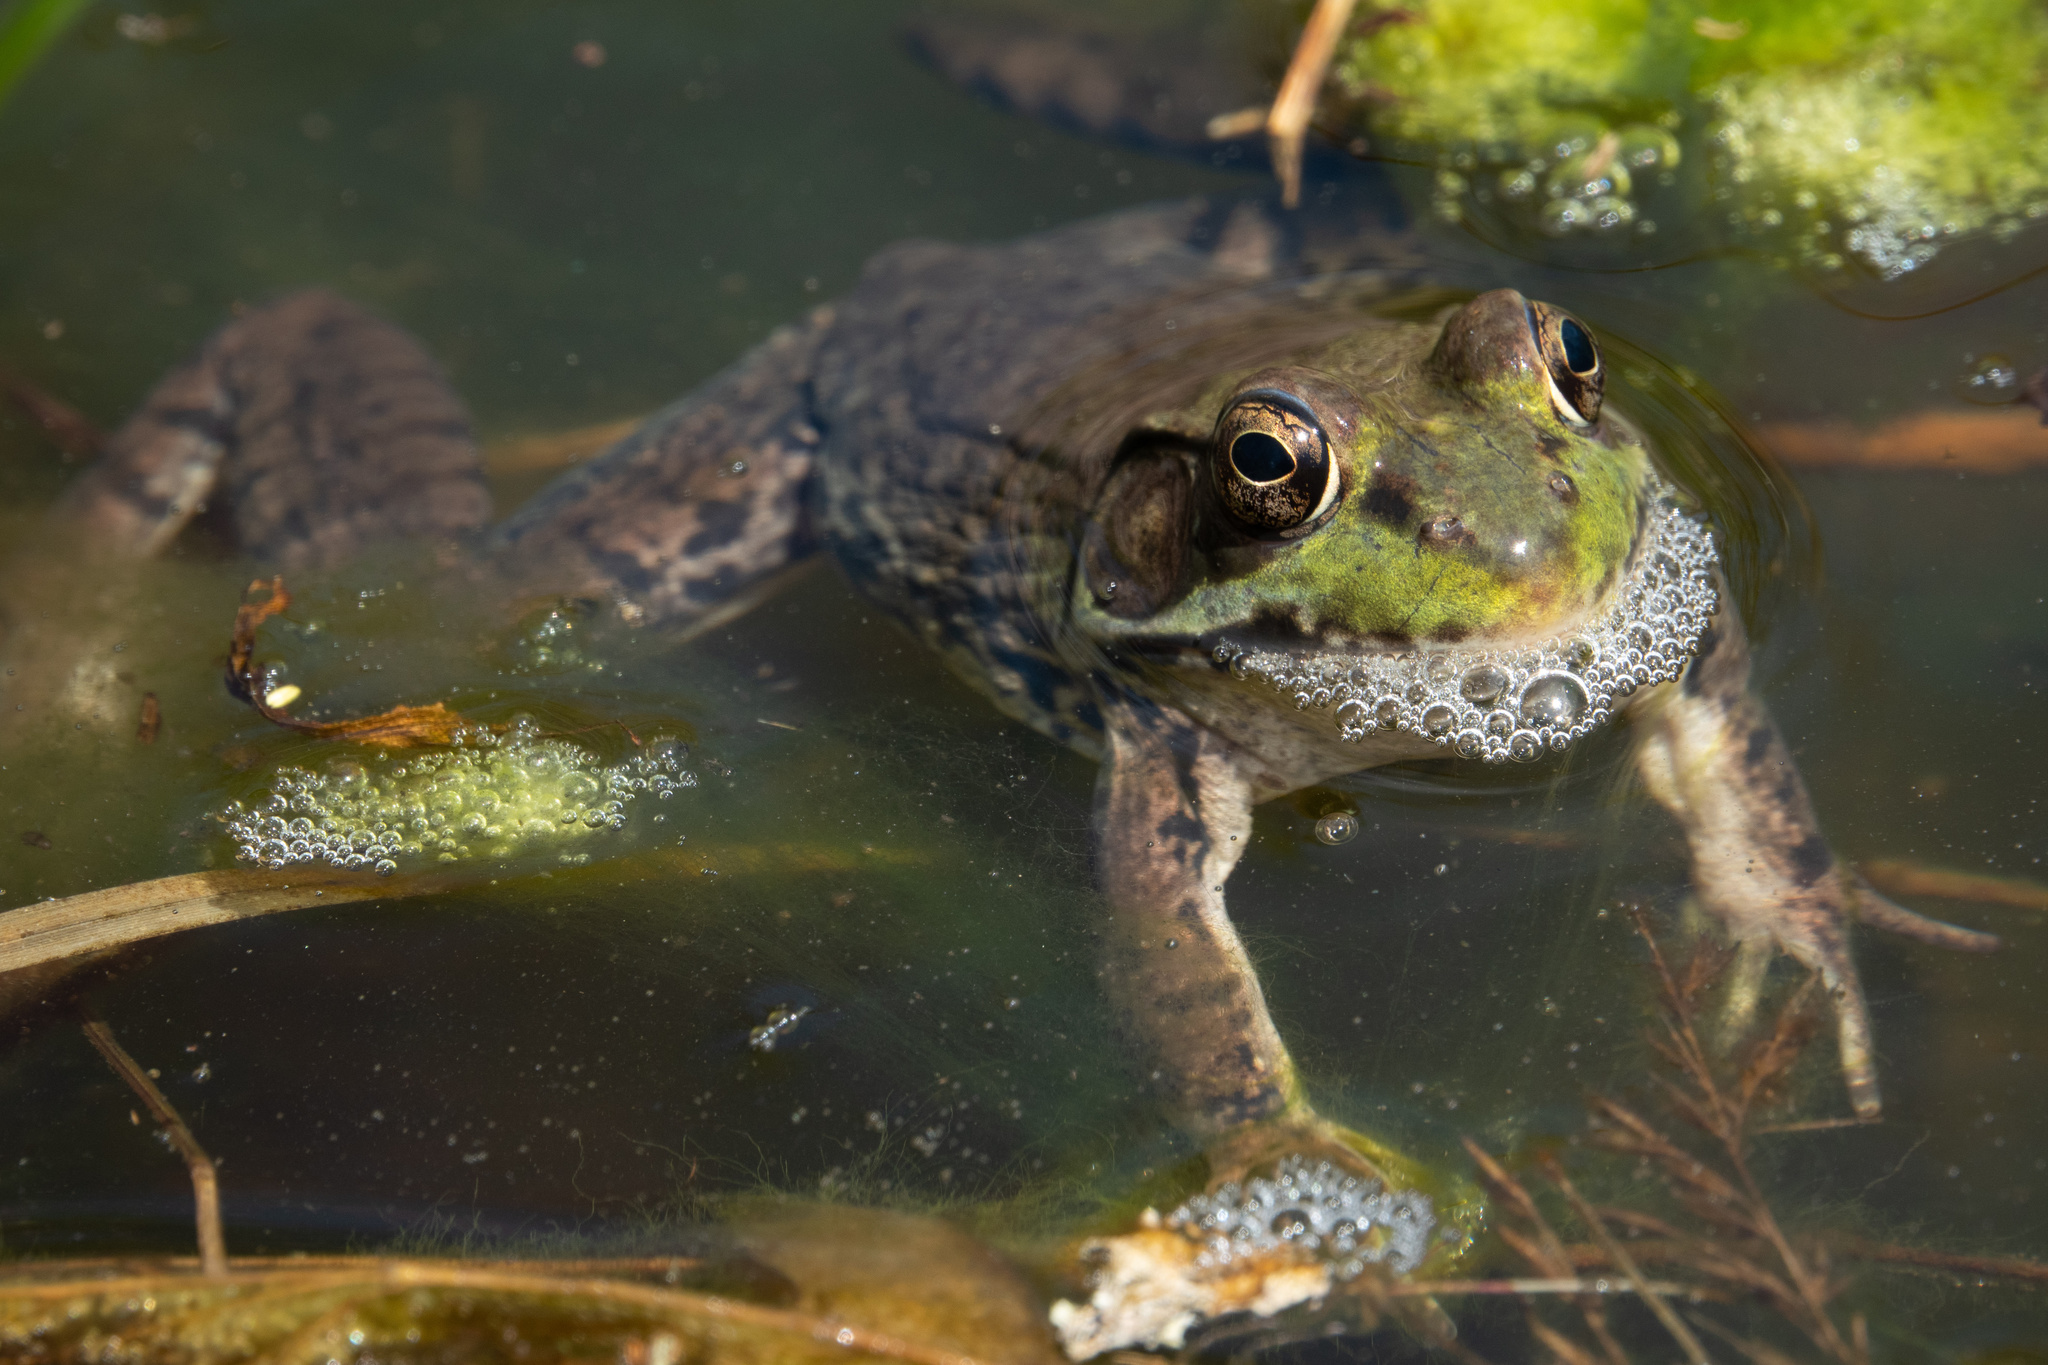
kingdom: Animalia
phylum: Chordata
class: Amphibia
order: Anura
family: Ranidae
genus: Lithobates
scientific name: Lithobates clamitans
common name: Green frog
